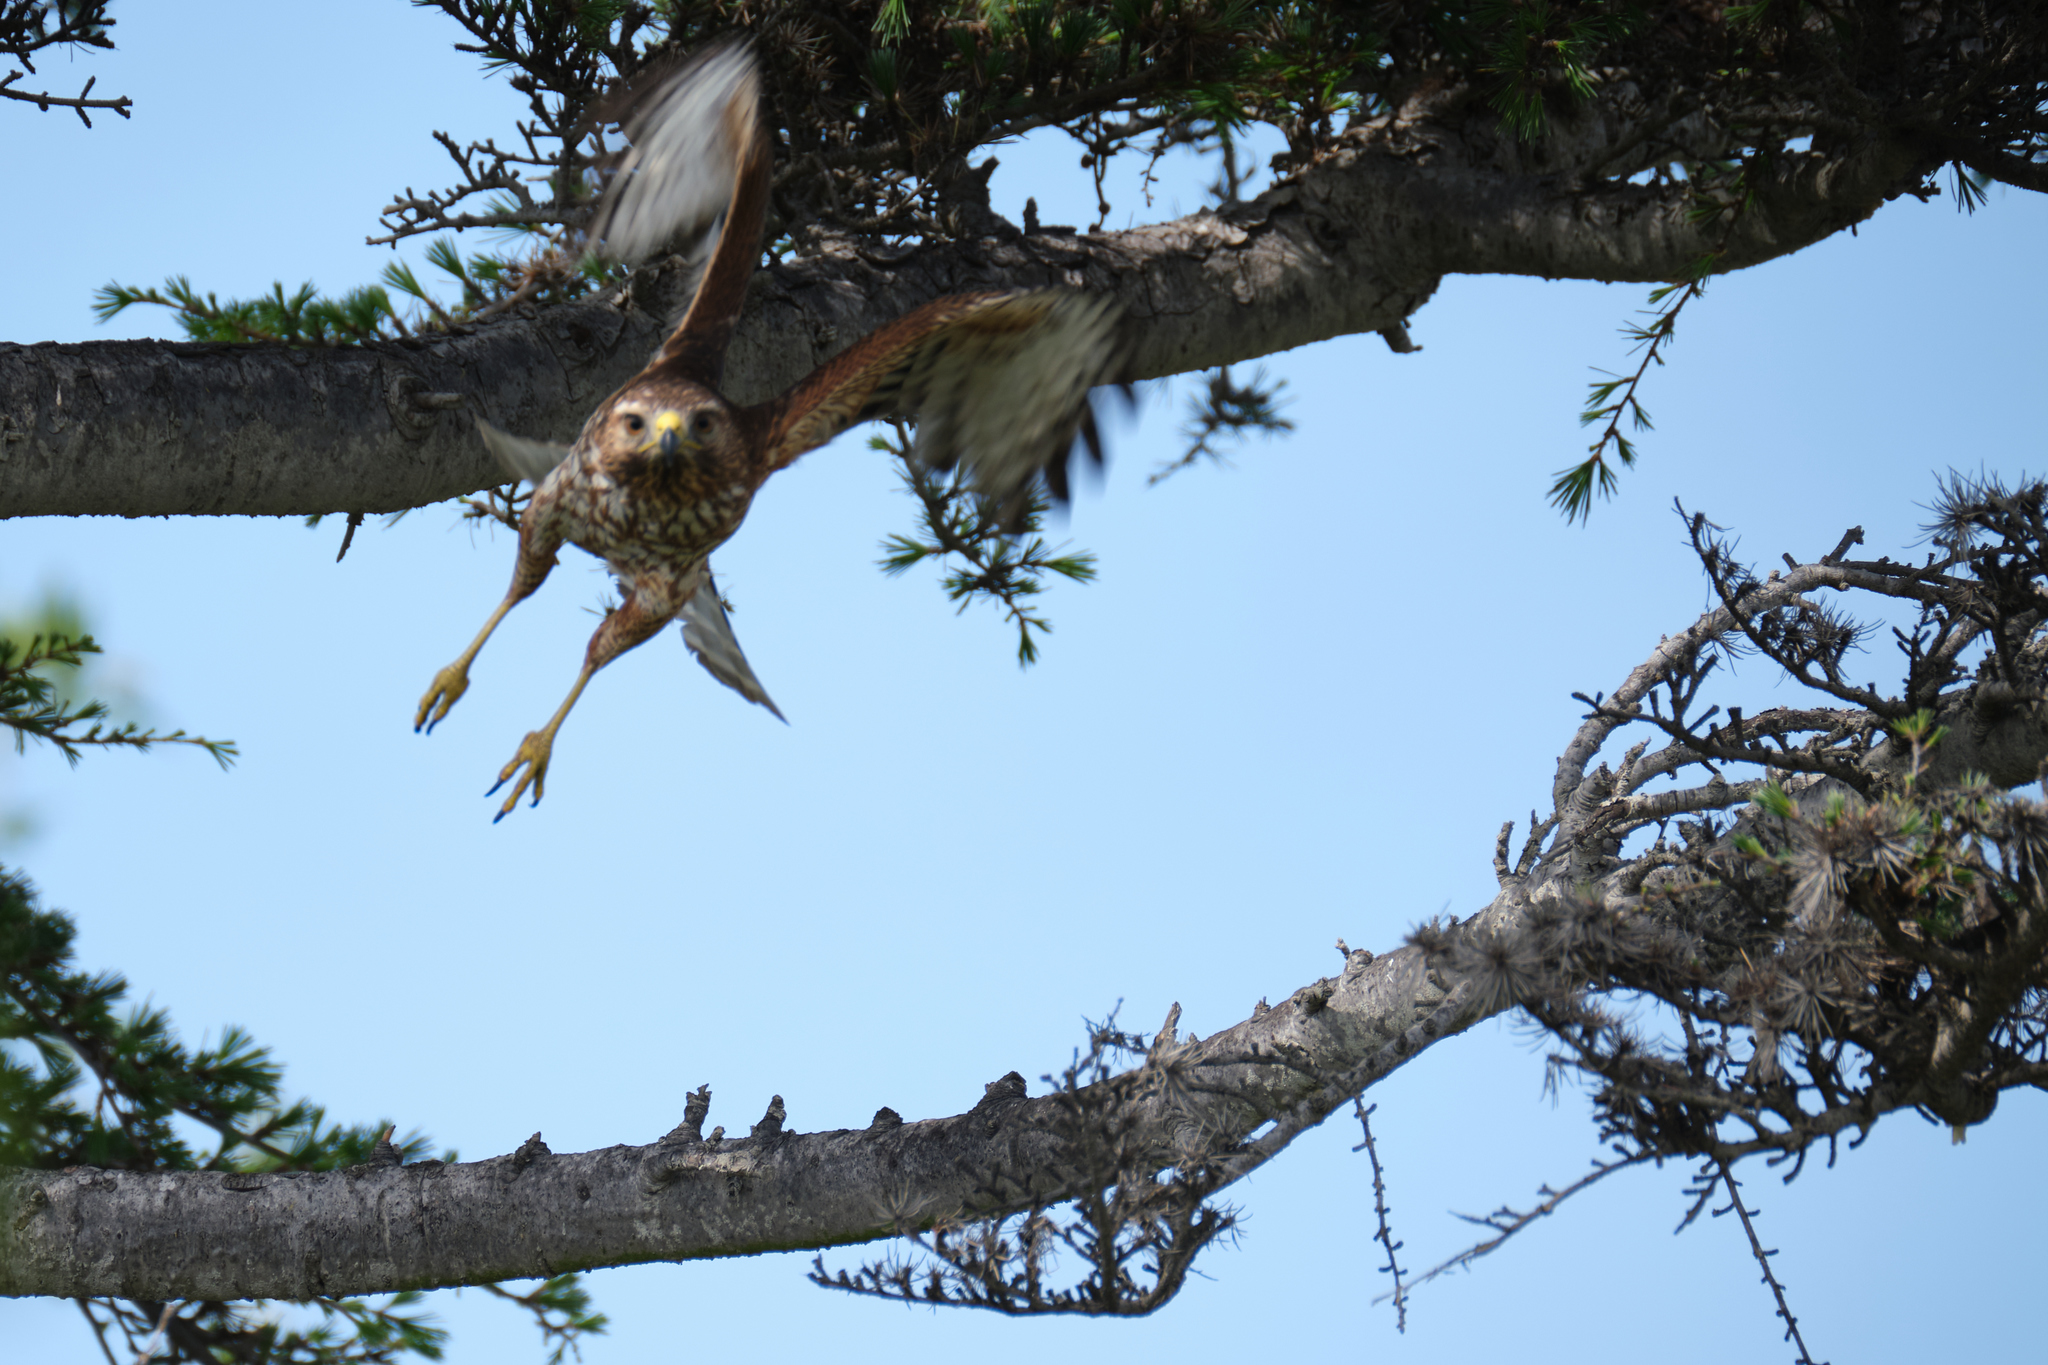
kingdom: Animalia
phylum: Chordata
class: Aves
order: Accipitriformes
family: Accipitridae
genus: Buteo
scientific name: Buteo lineatus
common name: Red-shouldered hawk
